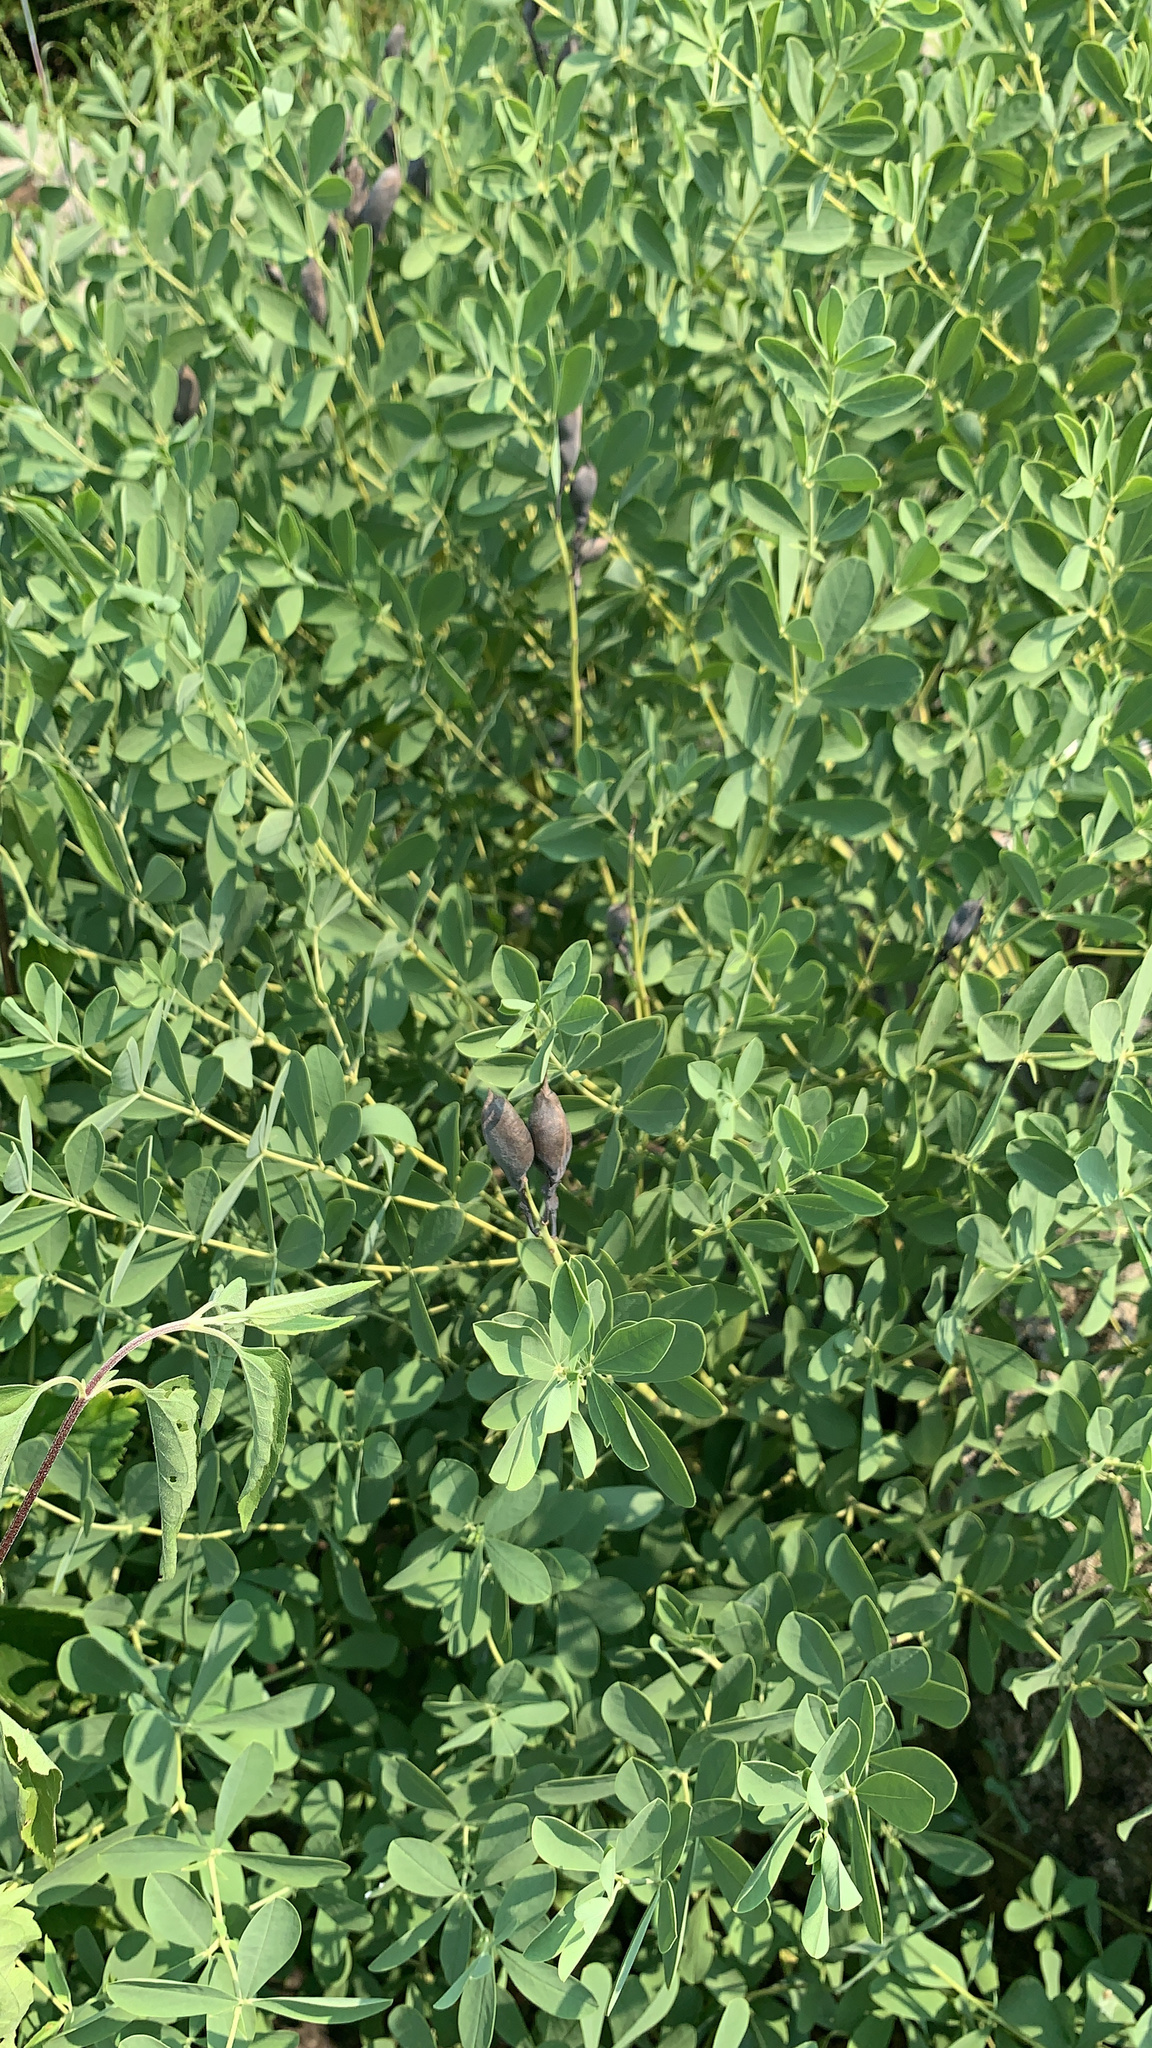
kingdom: Plantae
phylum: Tracheophyta
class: Magnoliopsida
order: Fabales
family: Fabaceae
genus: Baptisia
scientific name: Baptisia australis
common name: Blue false indigo
